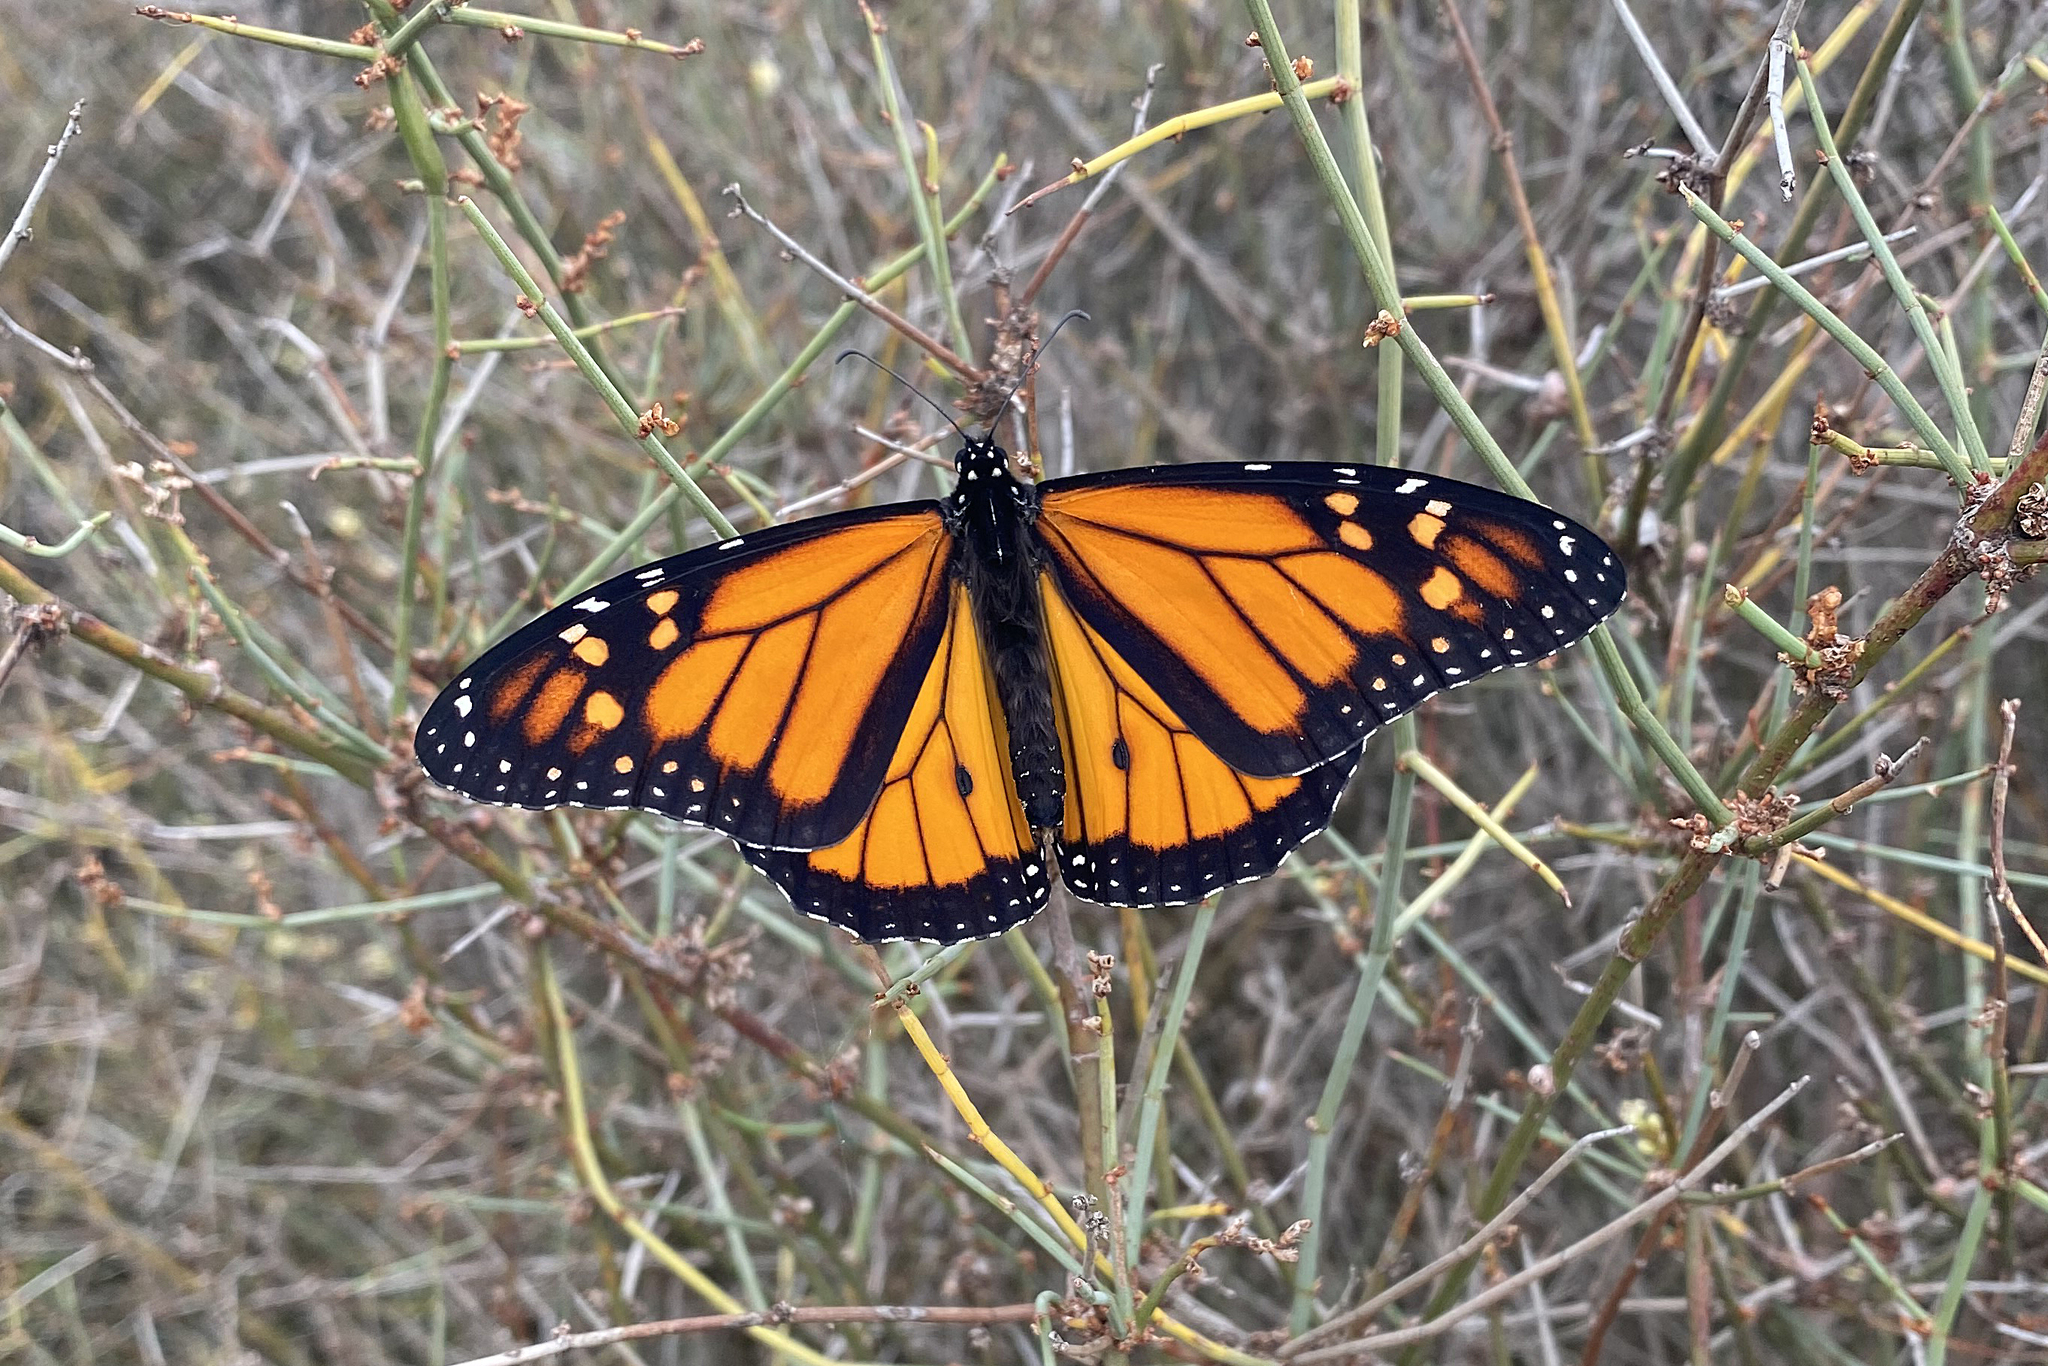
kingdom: Animalia
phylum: Arthropoda
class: Insecta
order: Lepidoptera
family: Nymphalidae
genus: Danaus
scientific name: Danaus plexippus
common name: Monarch
